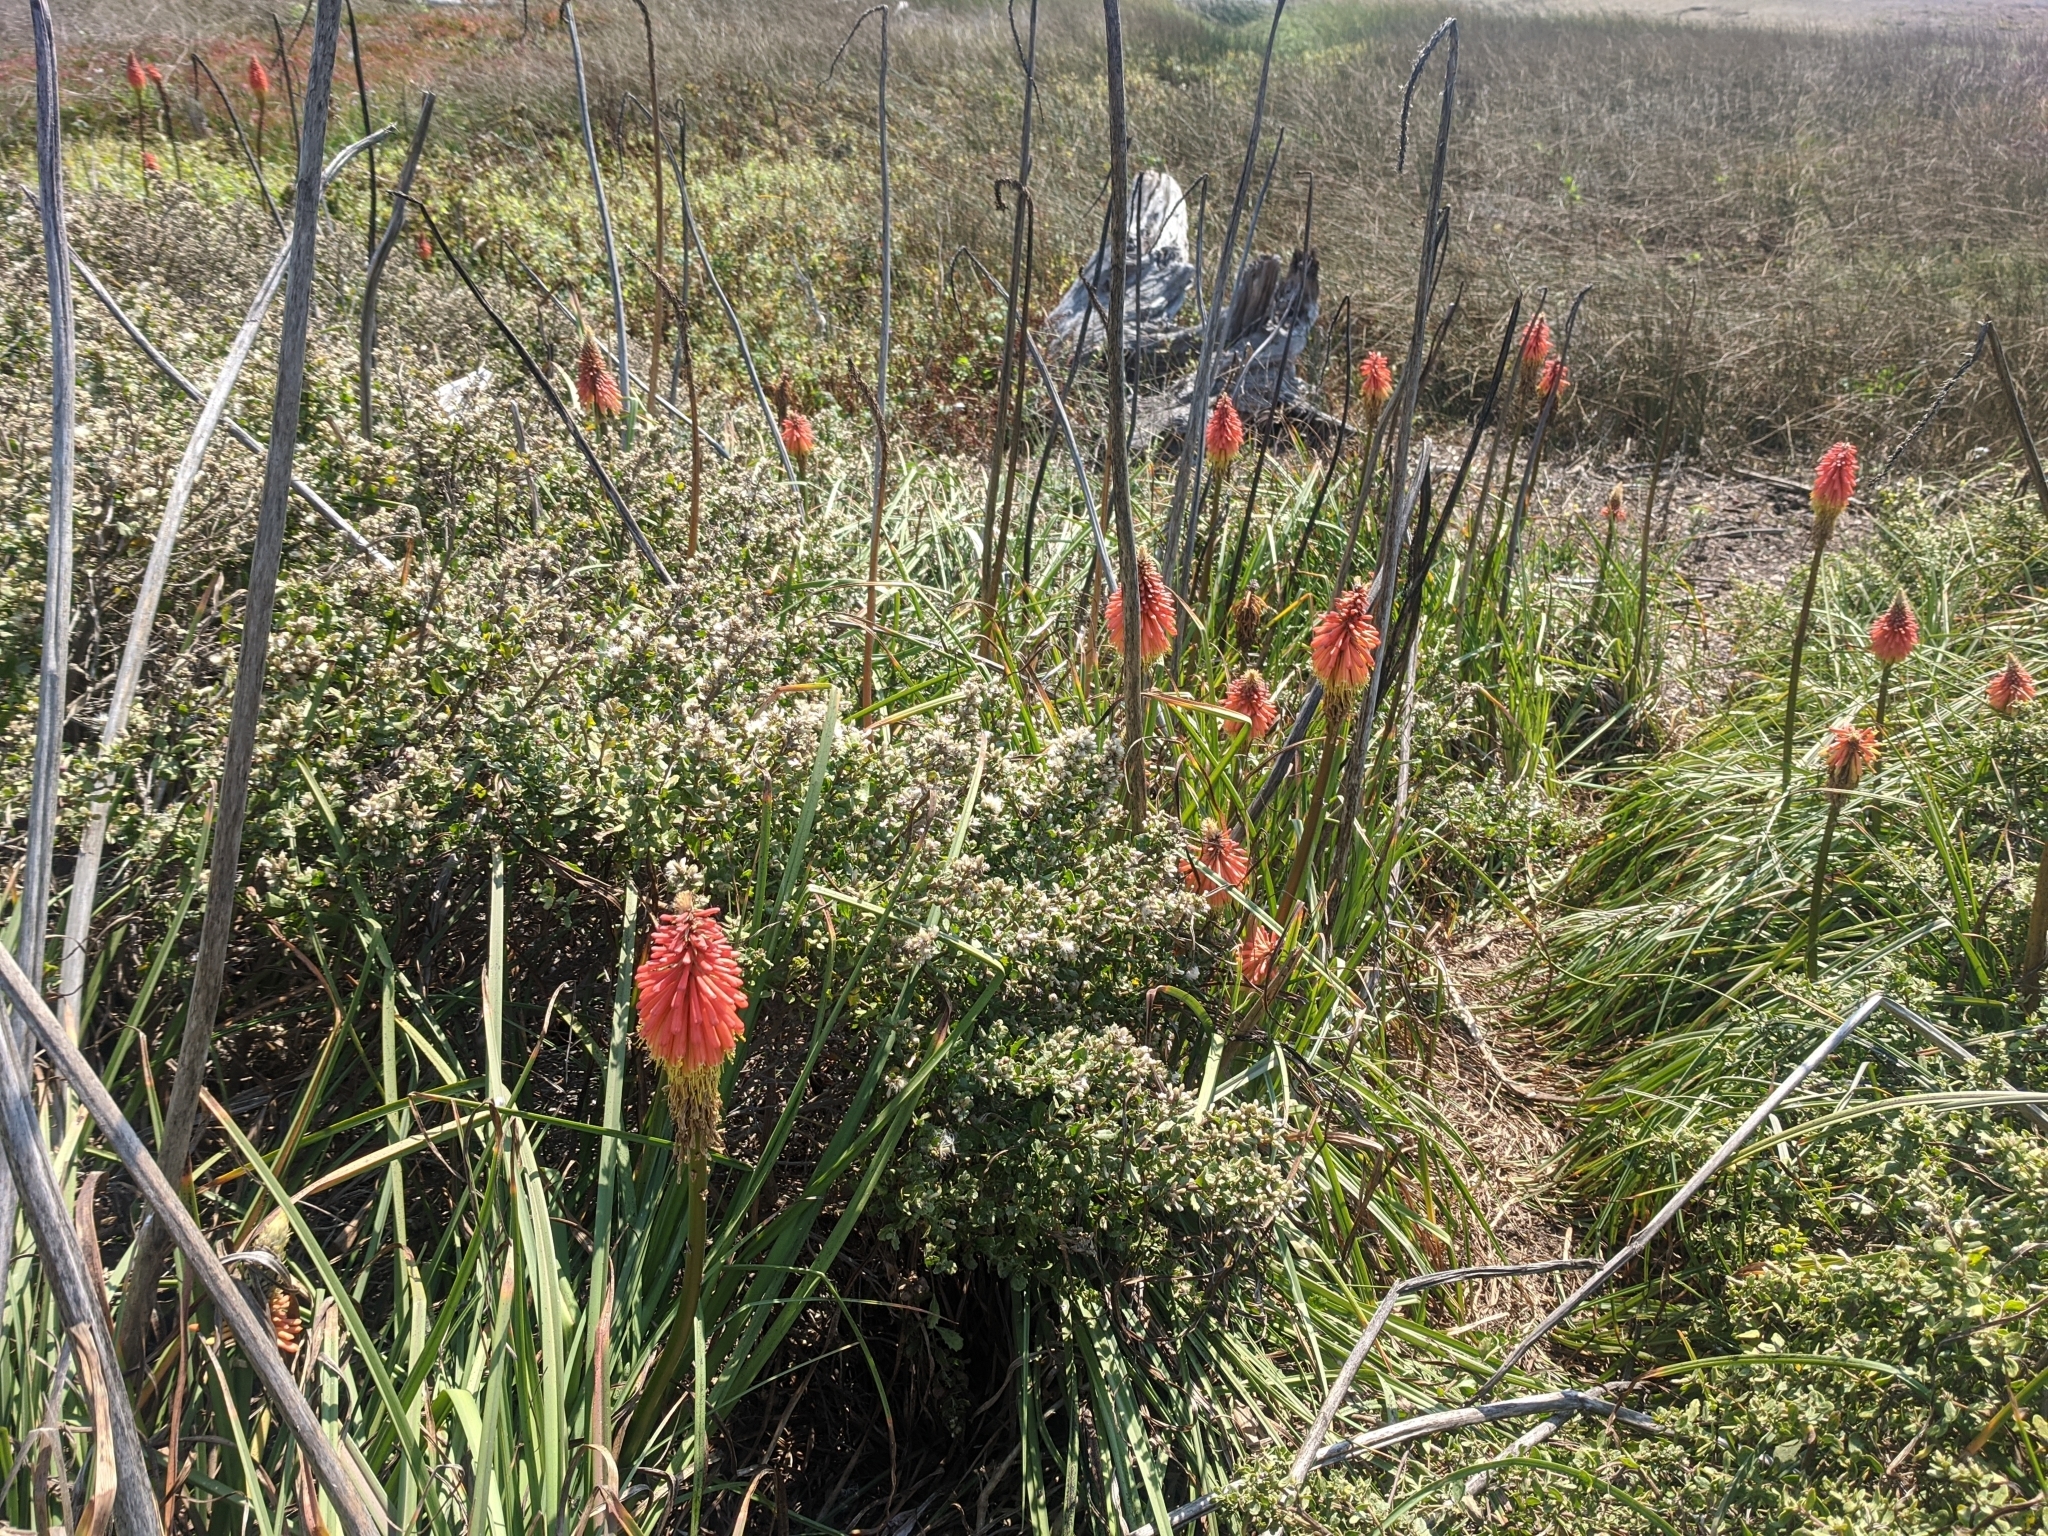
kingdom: Plantae
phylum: Tracheophyta
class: Liliopsida
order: Asparagales
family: Asphodelaceae
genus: Kniphofia
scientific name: Kniphofia uvaria
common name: Red-hot-poker
